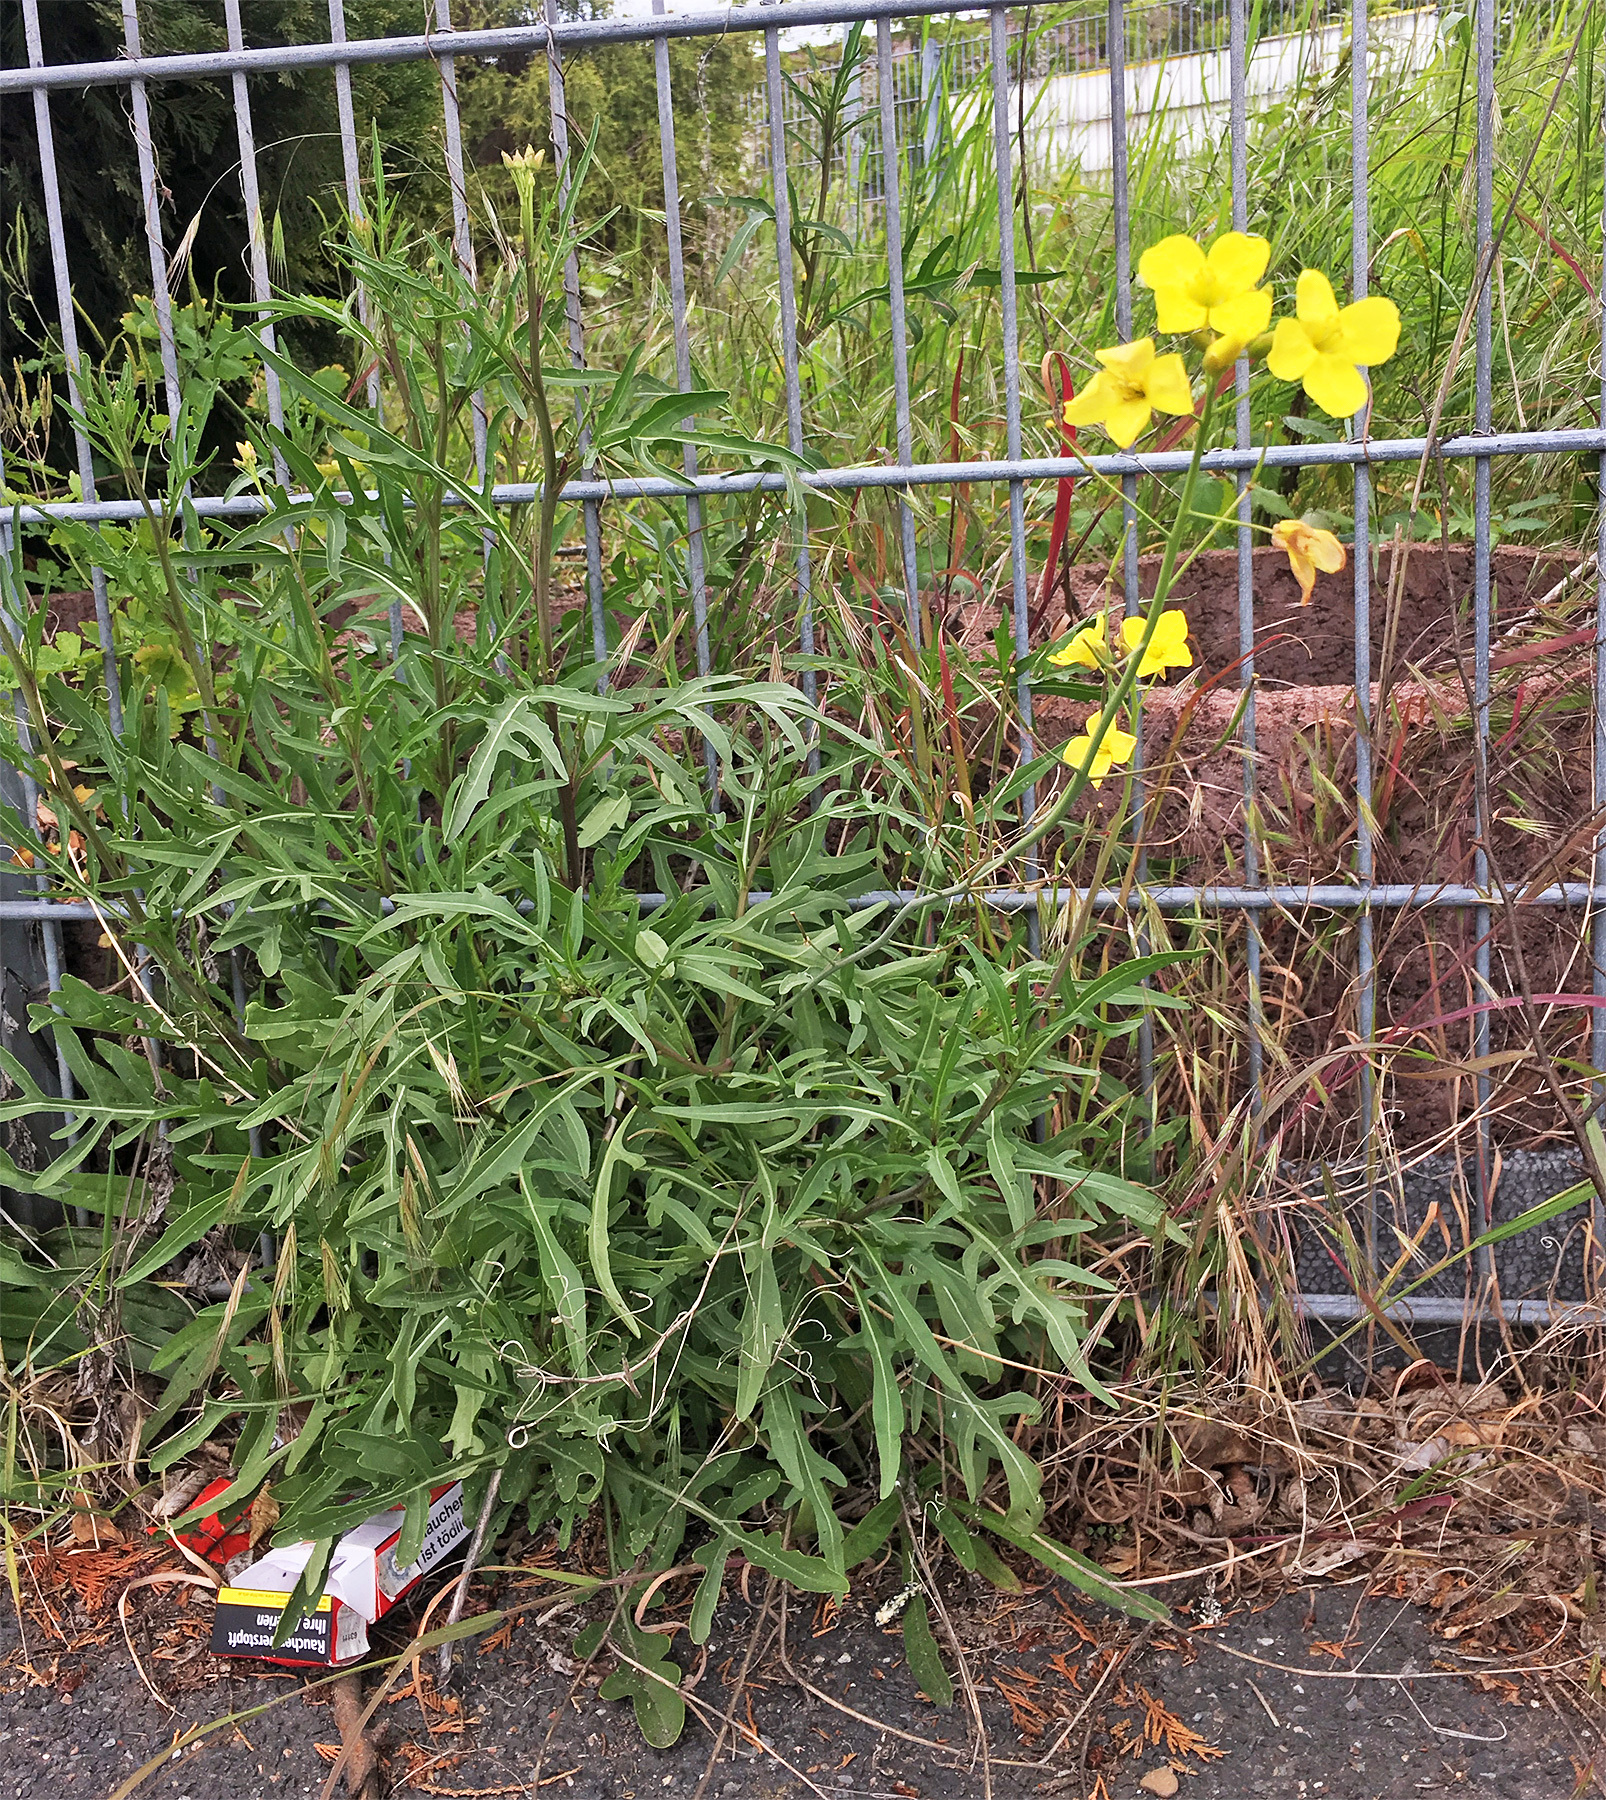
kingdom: Plantae
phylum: Tracheophyta
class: Magnoliopsida
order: Brassicales
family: Brassicaceae
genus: Diplotaxis
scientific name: Diplotaxis tenuifolia
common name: Perennial wall-rocket
